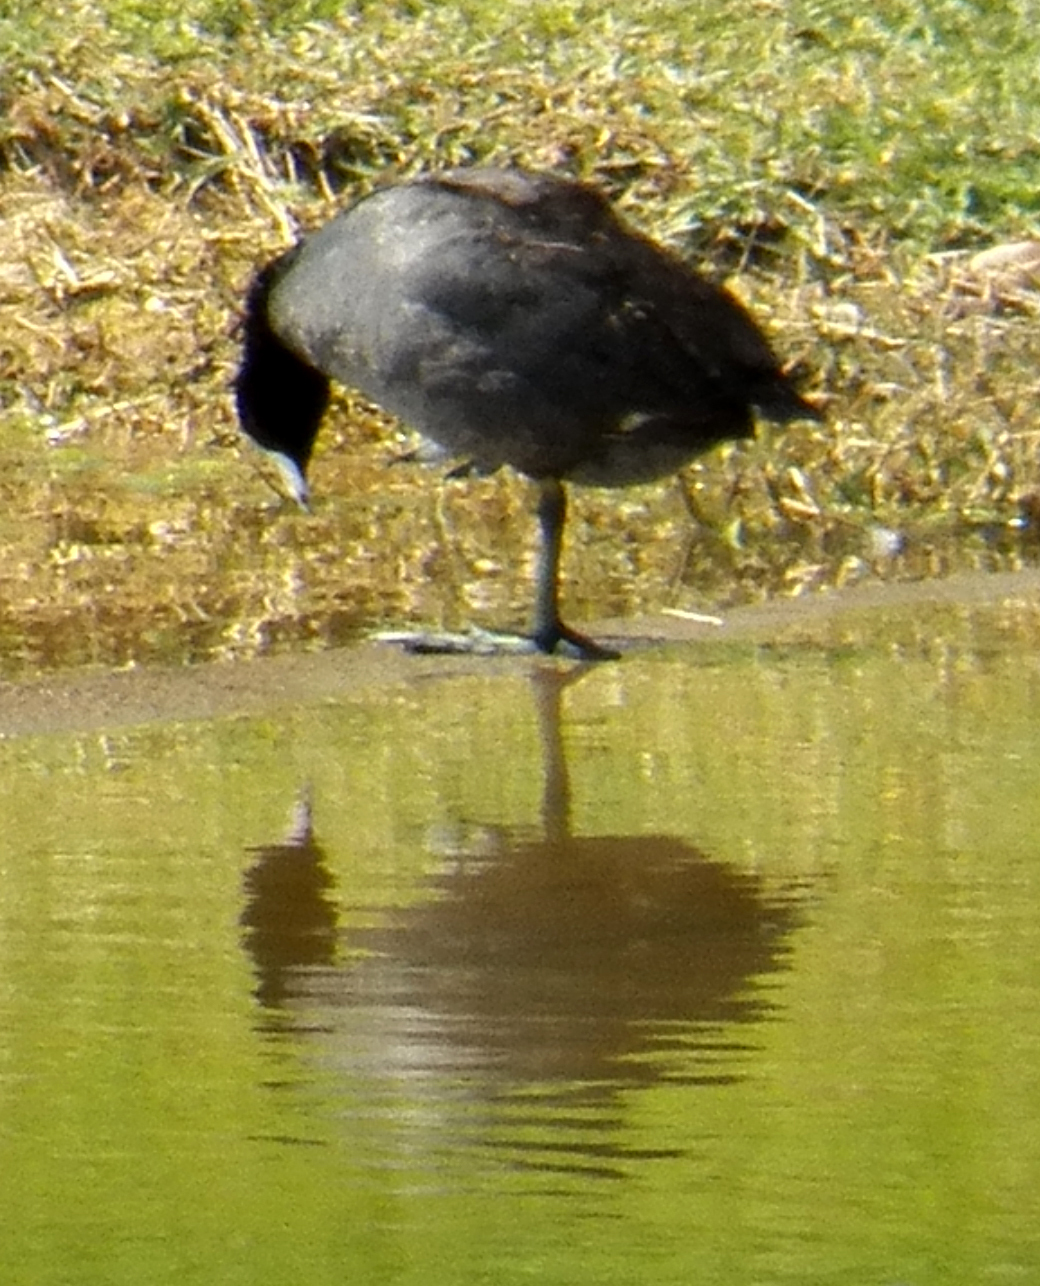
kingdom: Animalia
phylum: Chordata
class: Aves
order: Gruiformes
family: Rallidae
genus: Fulica
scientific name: Fulica americana
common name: American coot
